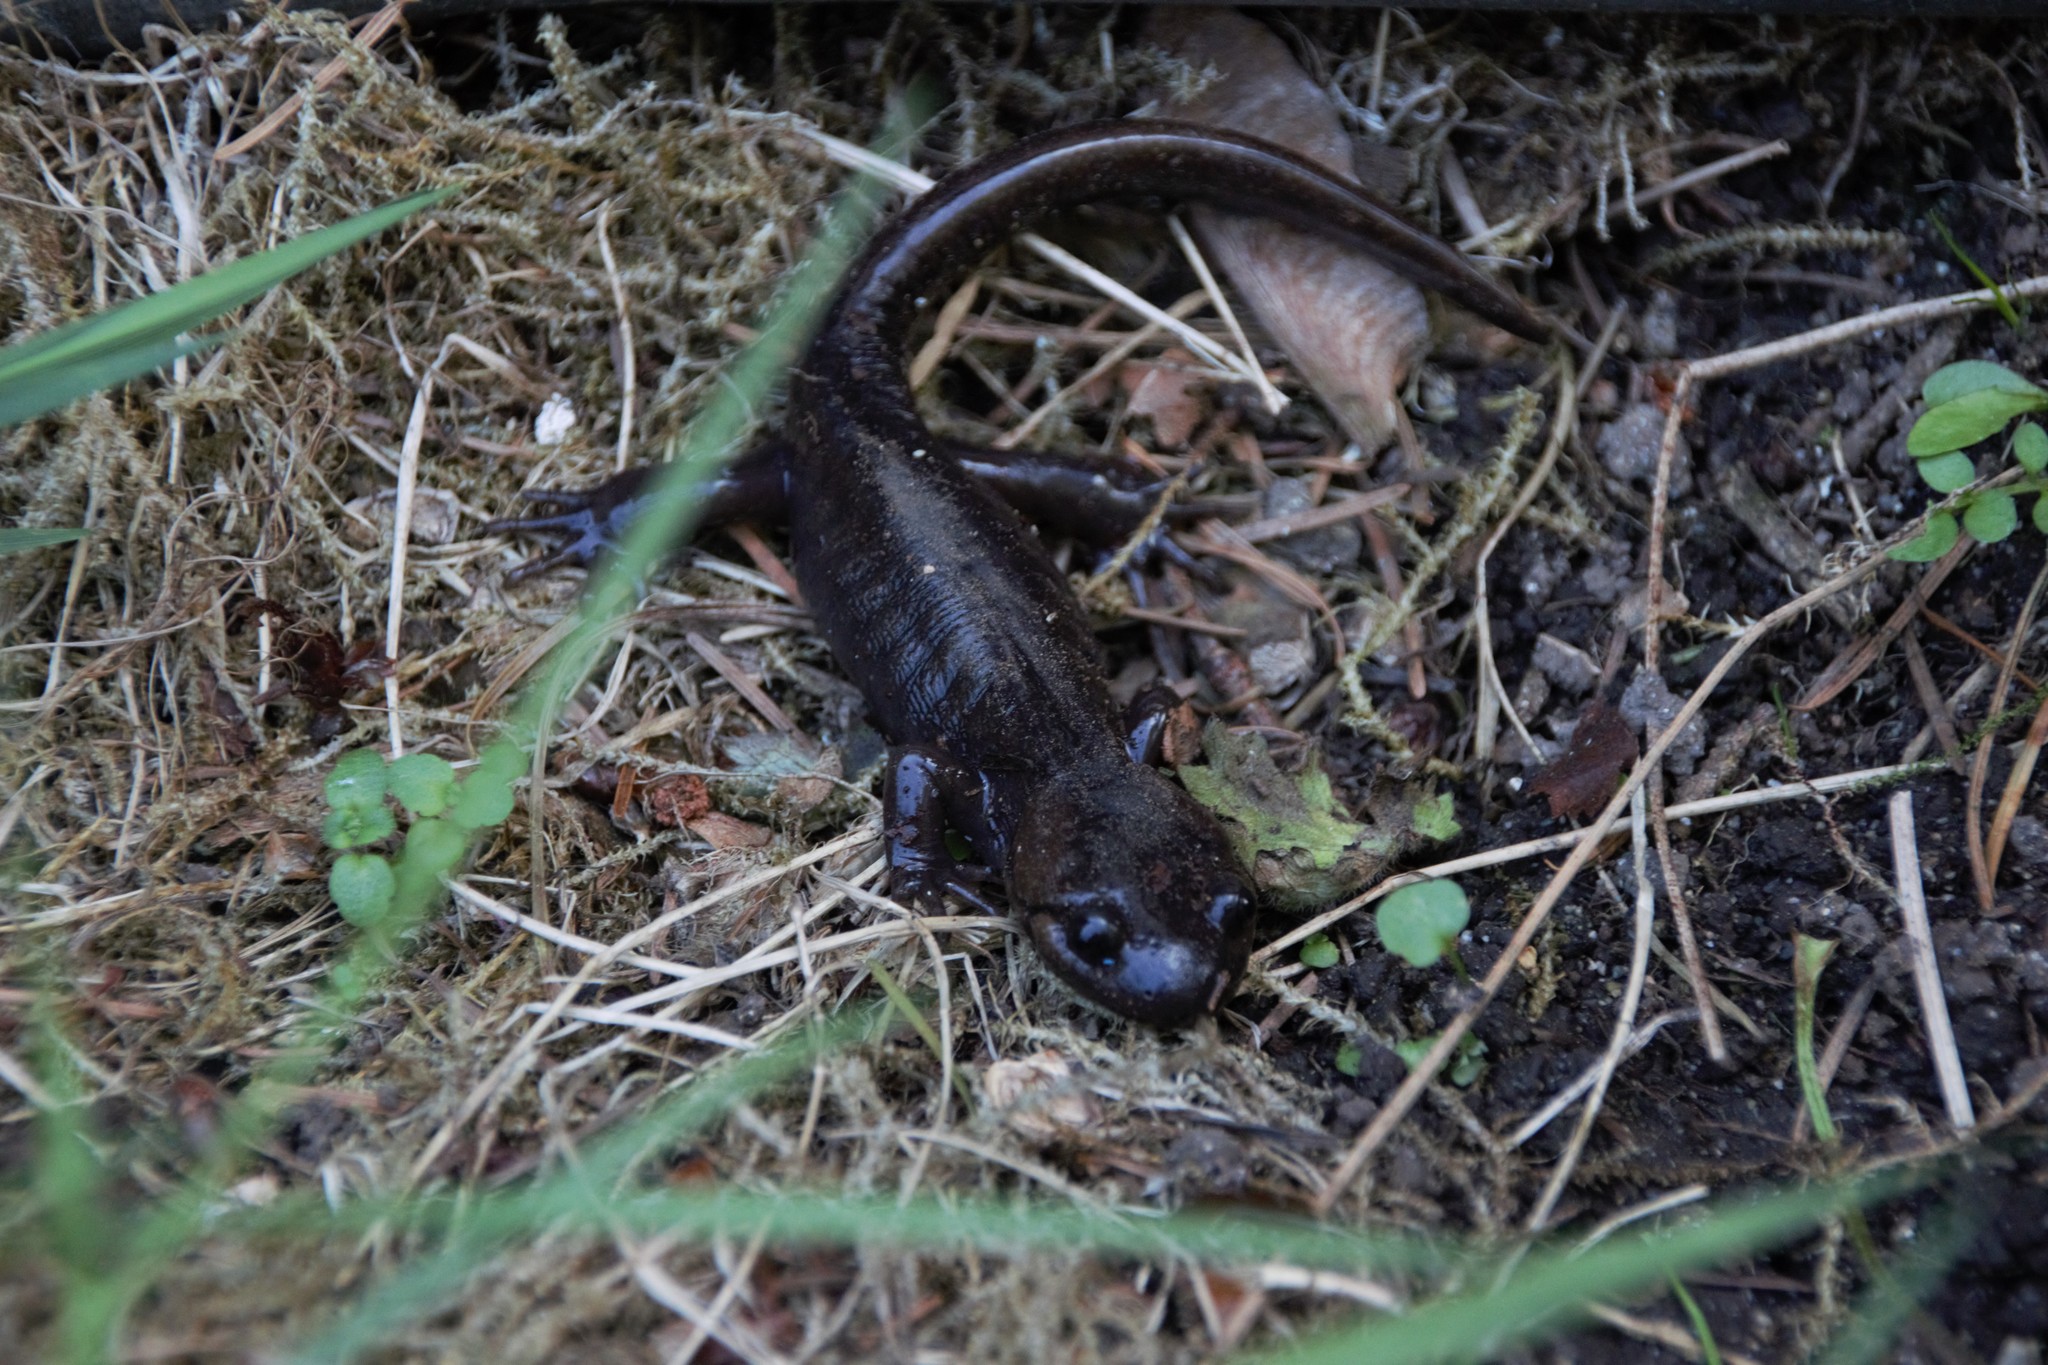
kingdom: Animalia
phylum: Chordata
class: Amphibia
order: Caudata
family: Ambystomatidae
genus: Ambystoma
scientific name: Ambystoma gracile
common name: Northwestern salamander
